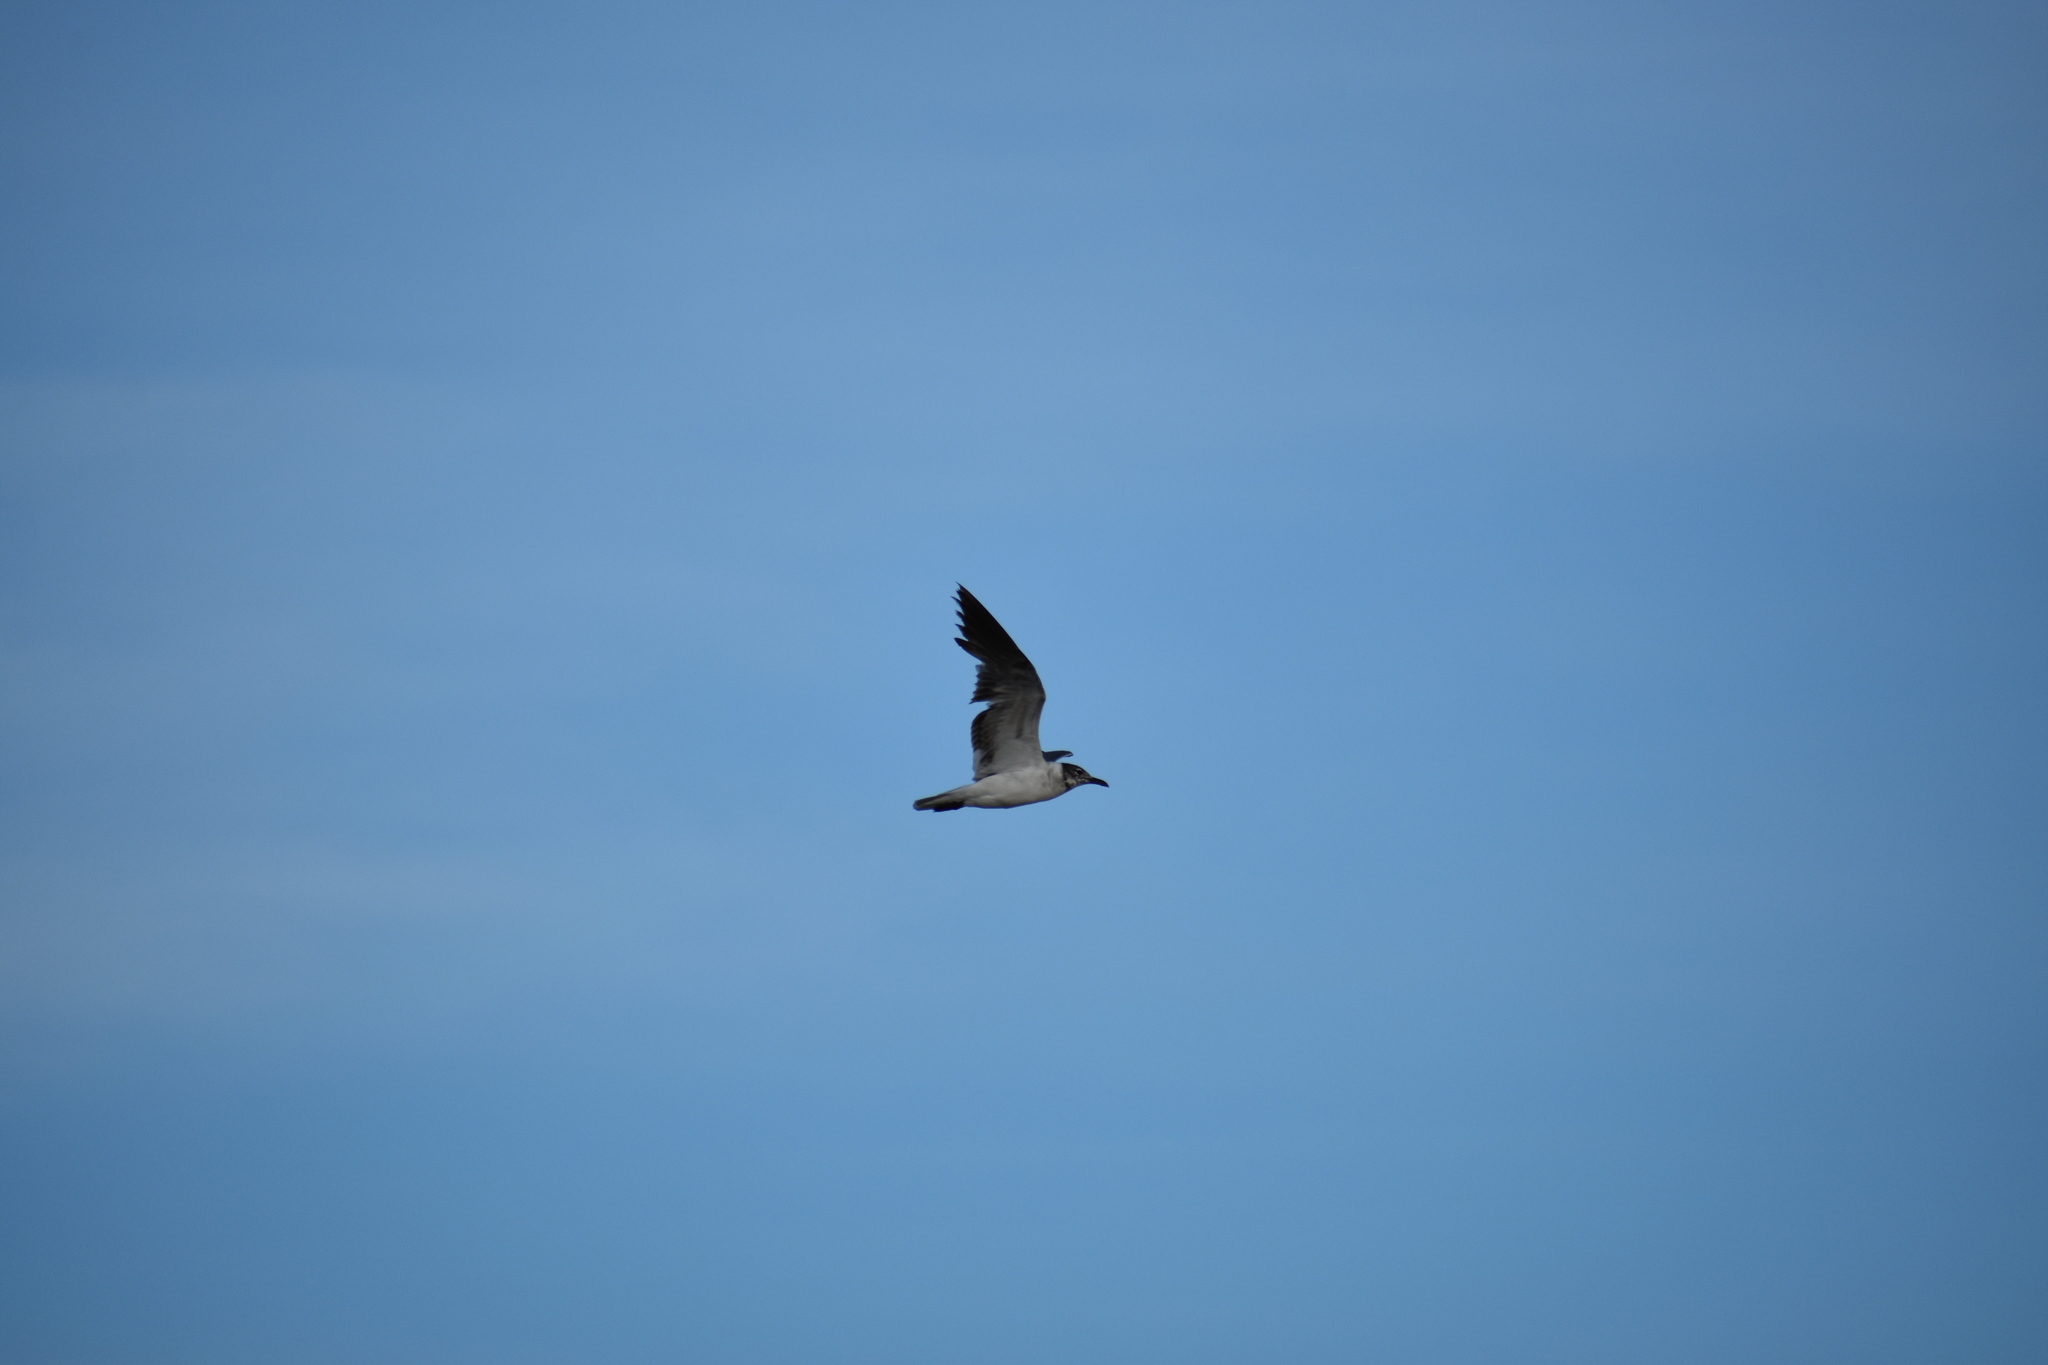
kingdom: Animalia
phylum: Chordata
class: Aves
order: Charadriiformes
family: Laridae
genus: Leucophaeus
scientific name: Leucophaeus atricilla
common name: Laughing gull
